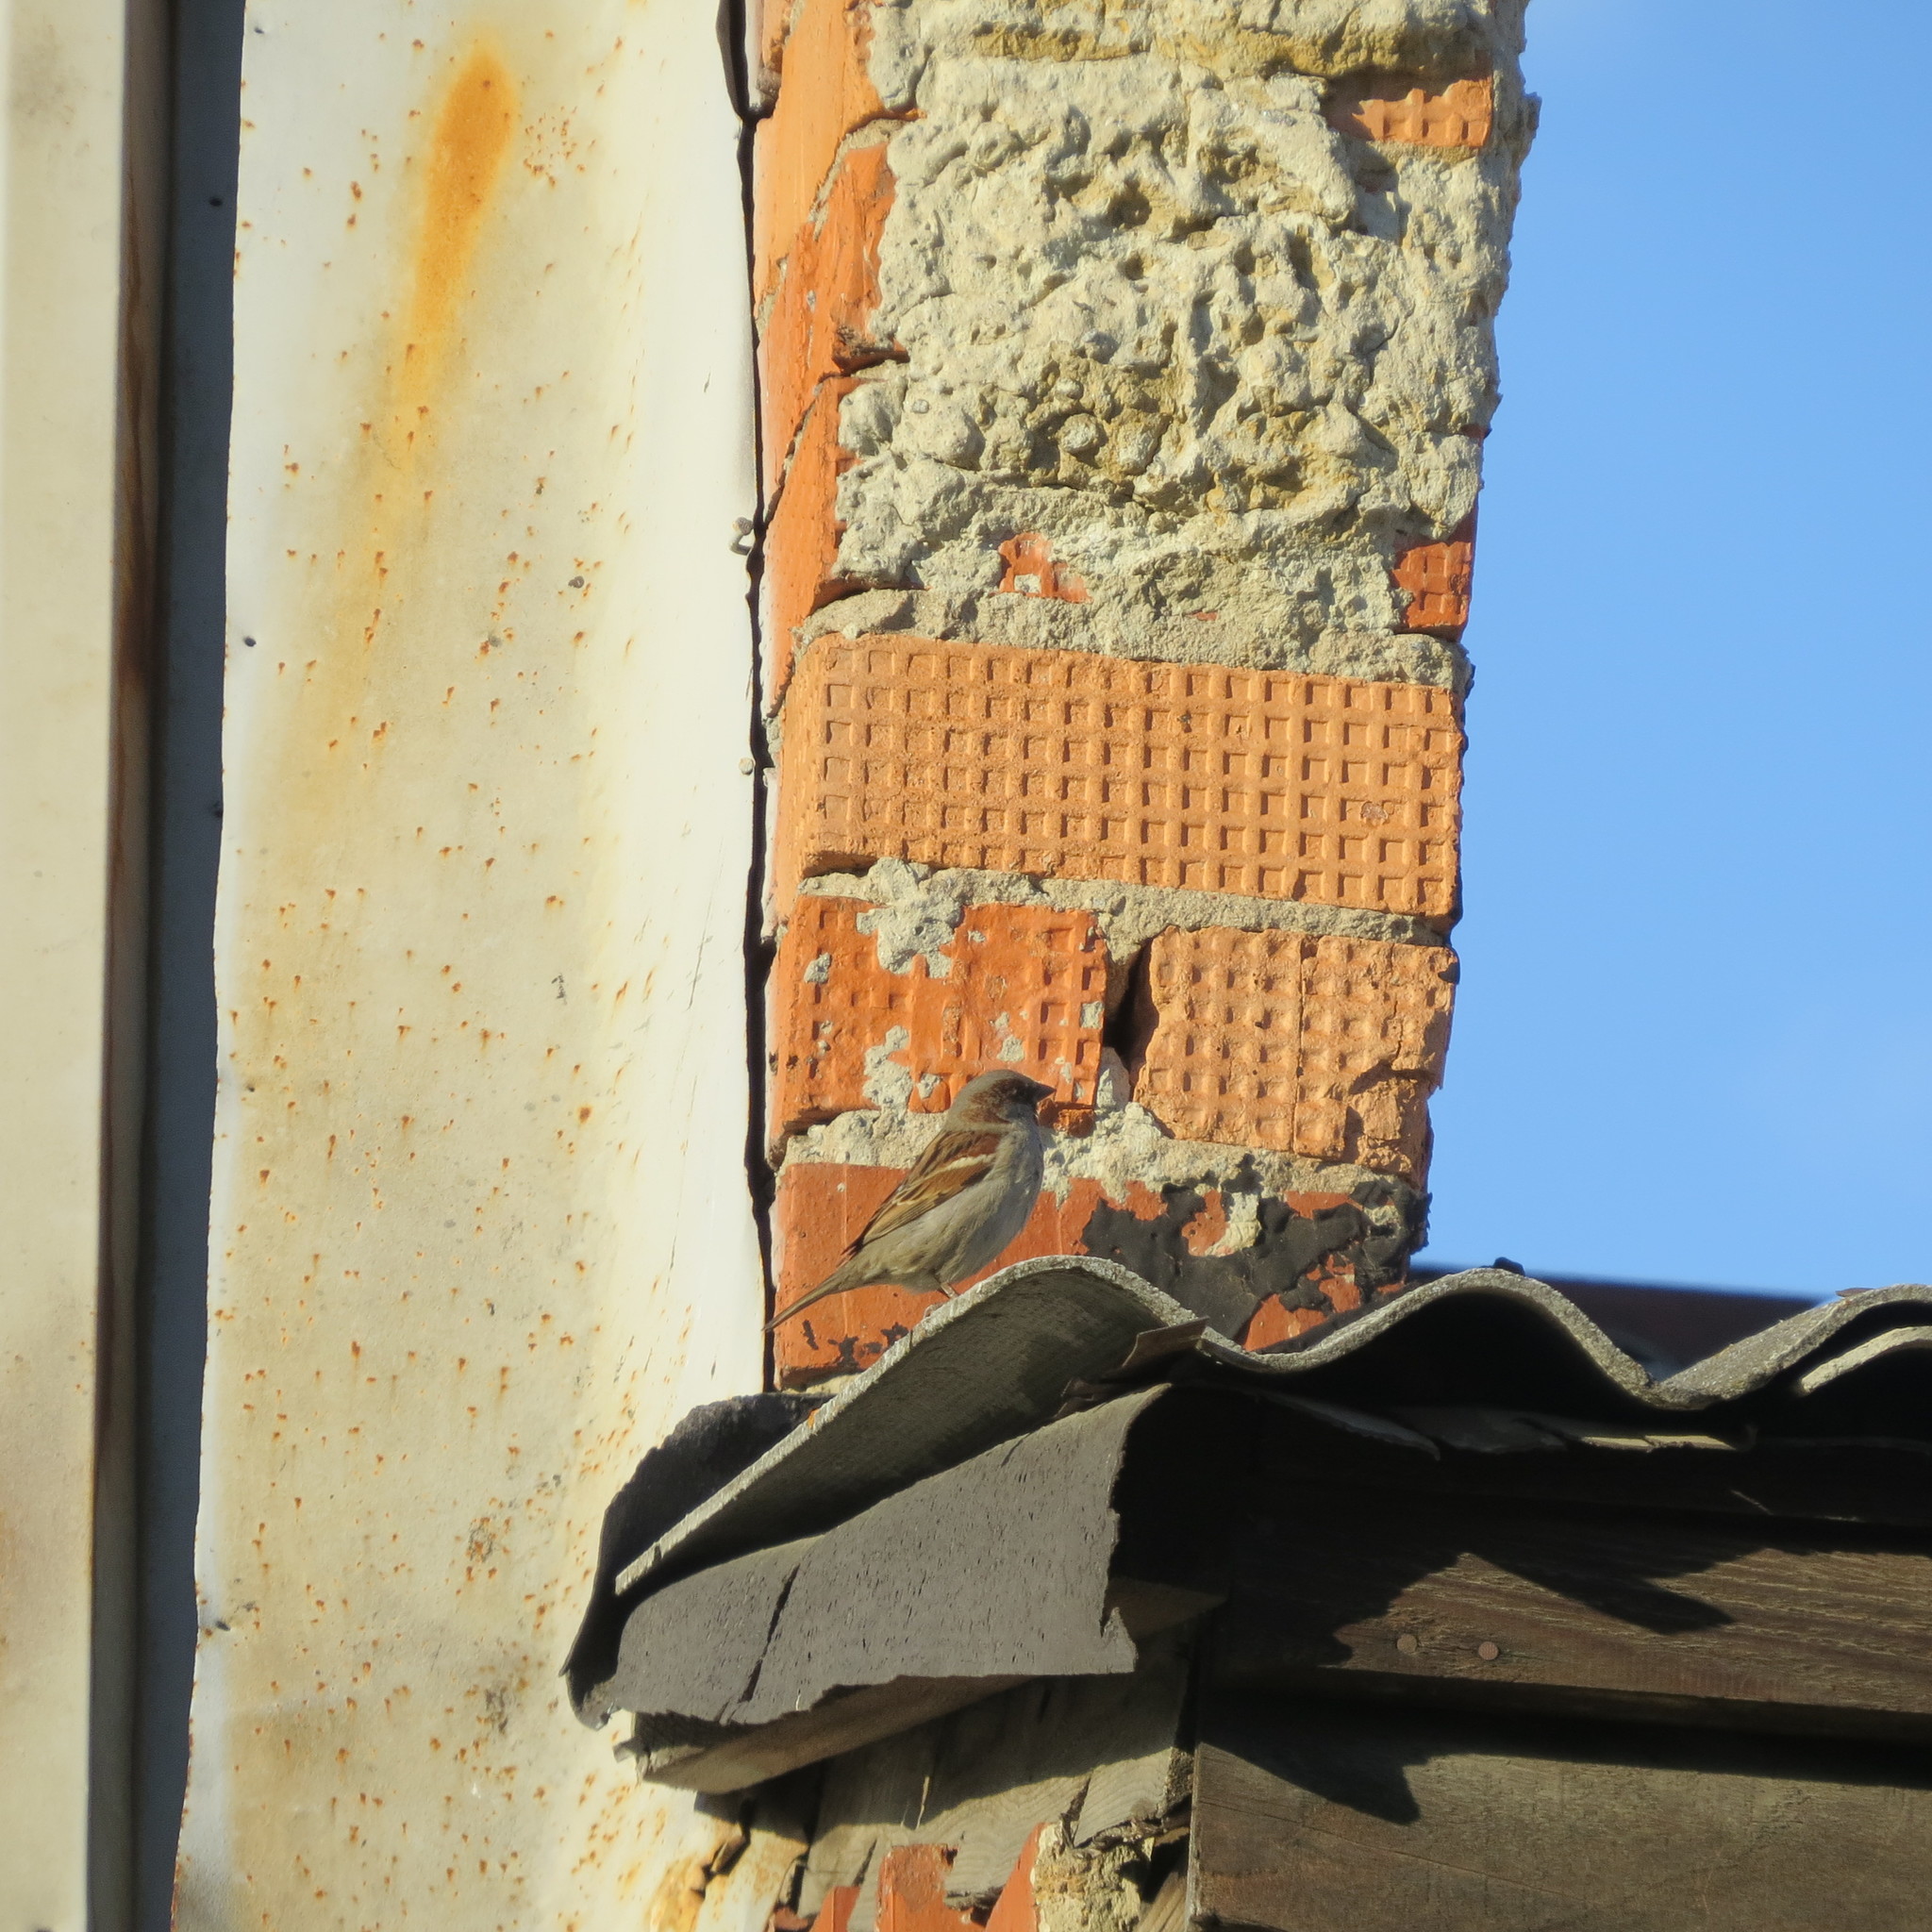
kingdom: Animalia
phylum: Chordata
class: Aves
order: Passeriformes
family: Passeridae
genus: Passer
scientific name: Passer domesticus
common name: House sparrow
